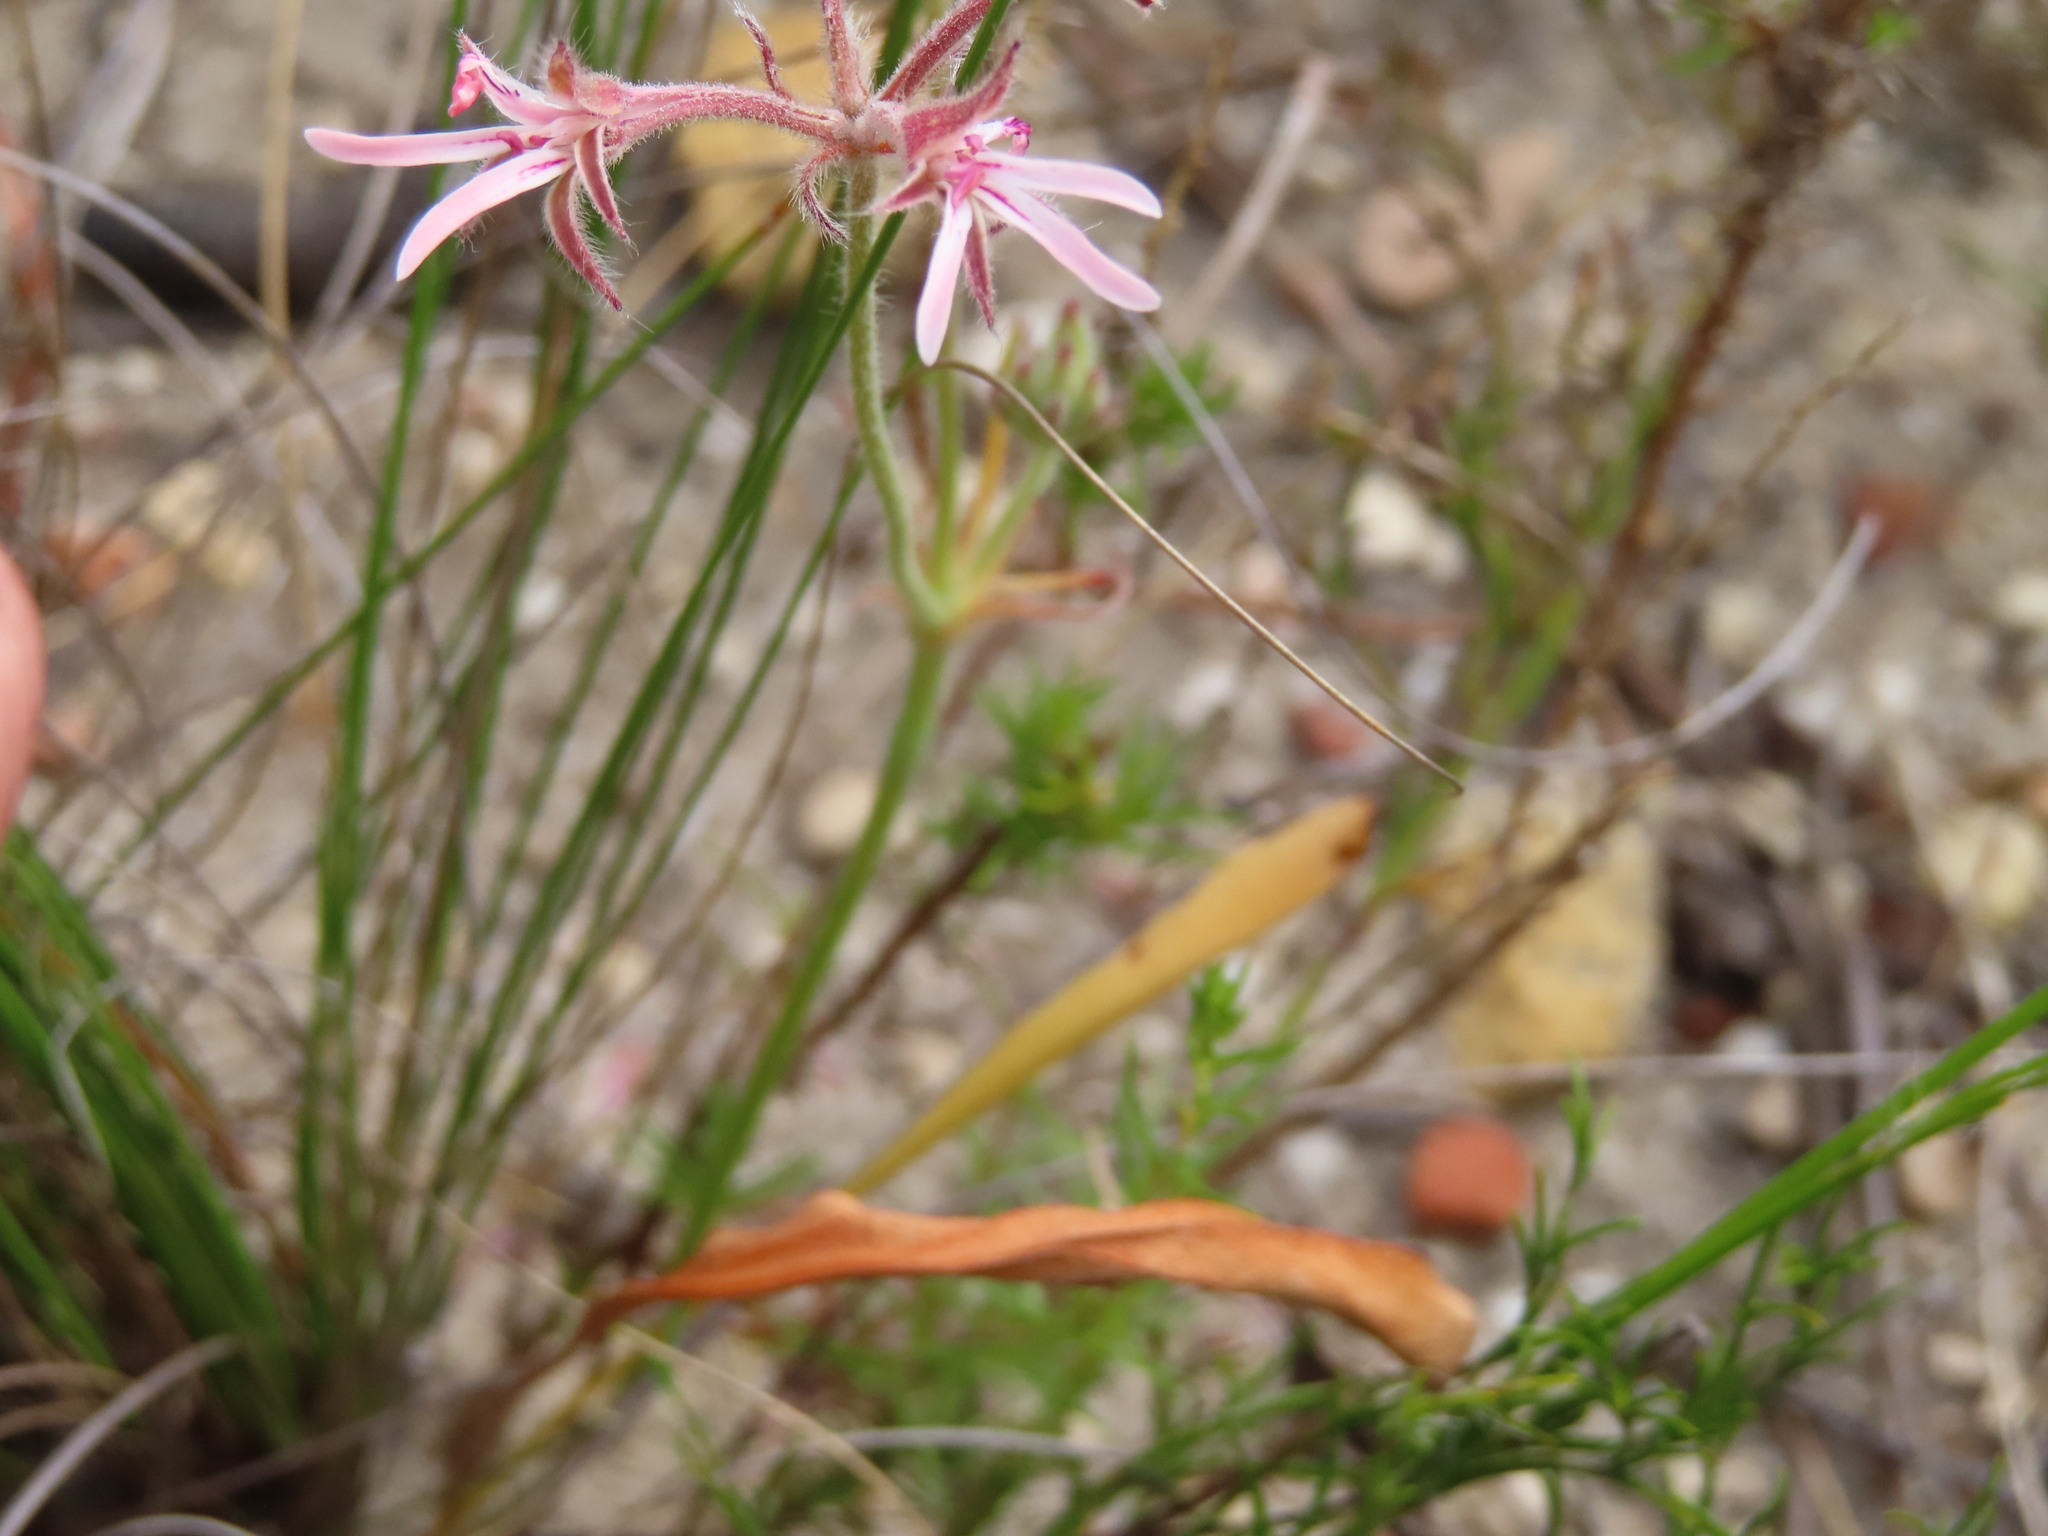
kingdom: Plantae
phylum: Tracheophyta
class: Magnoliopsida
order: Geraniales
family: Geraniaceae
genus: Pelargonium
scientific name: Pelargonium proliferum
